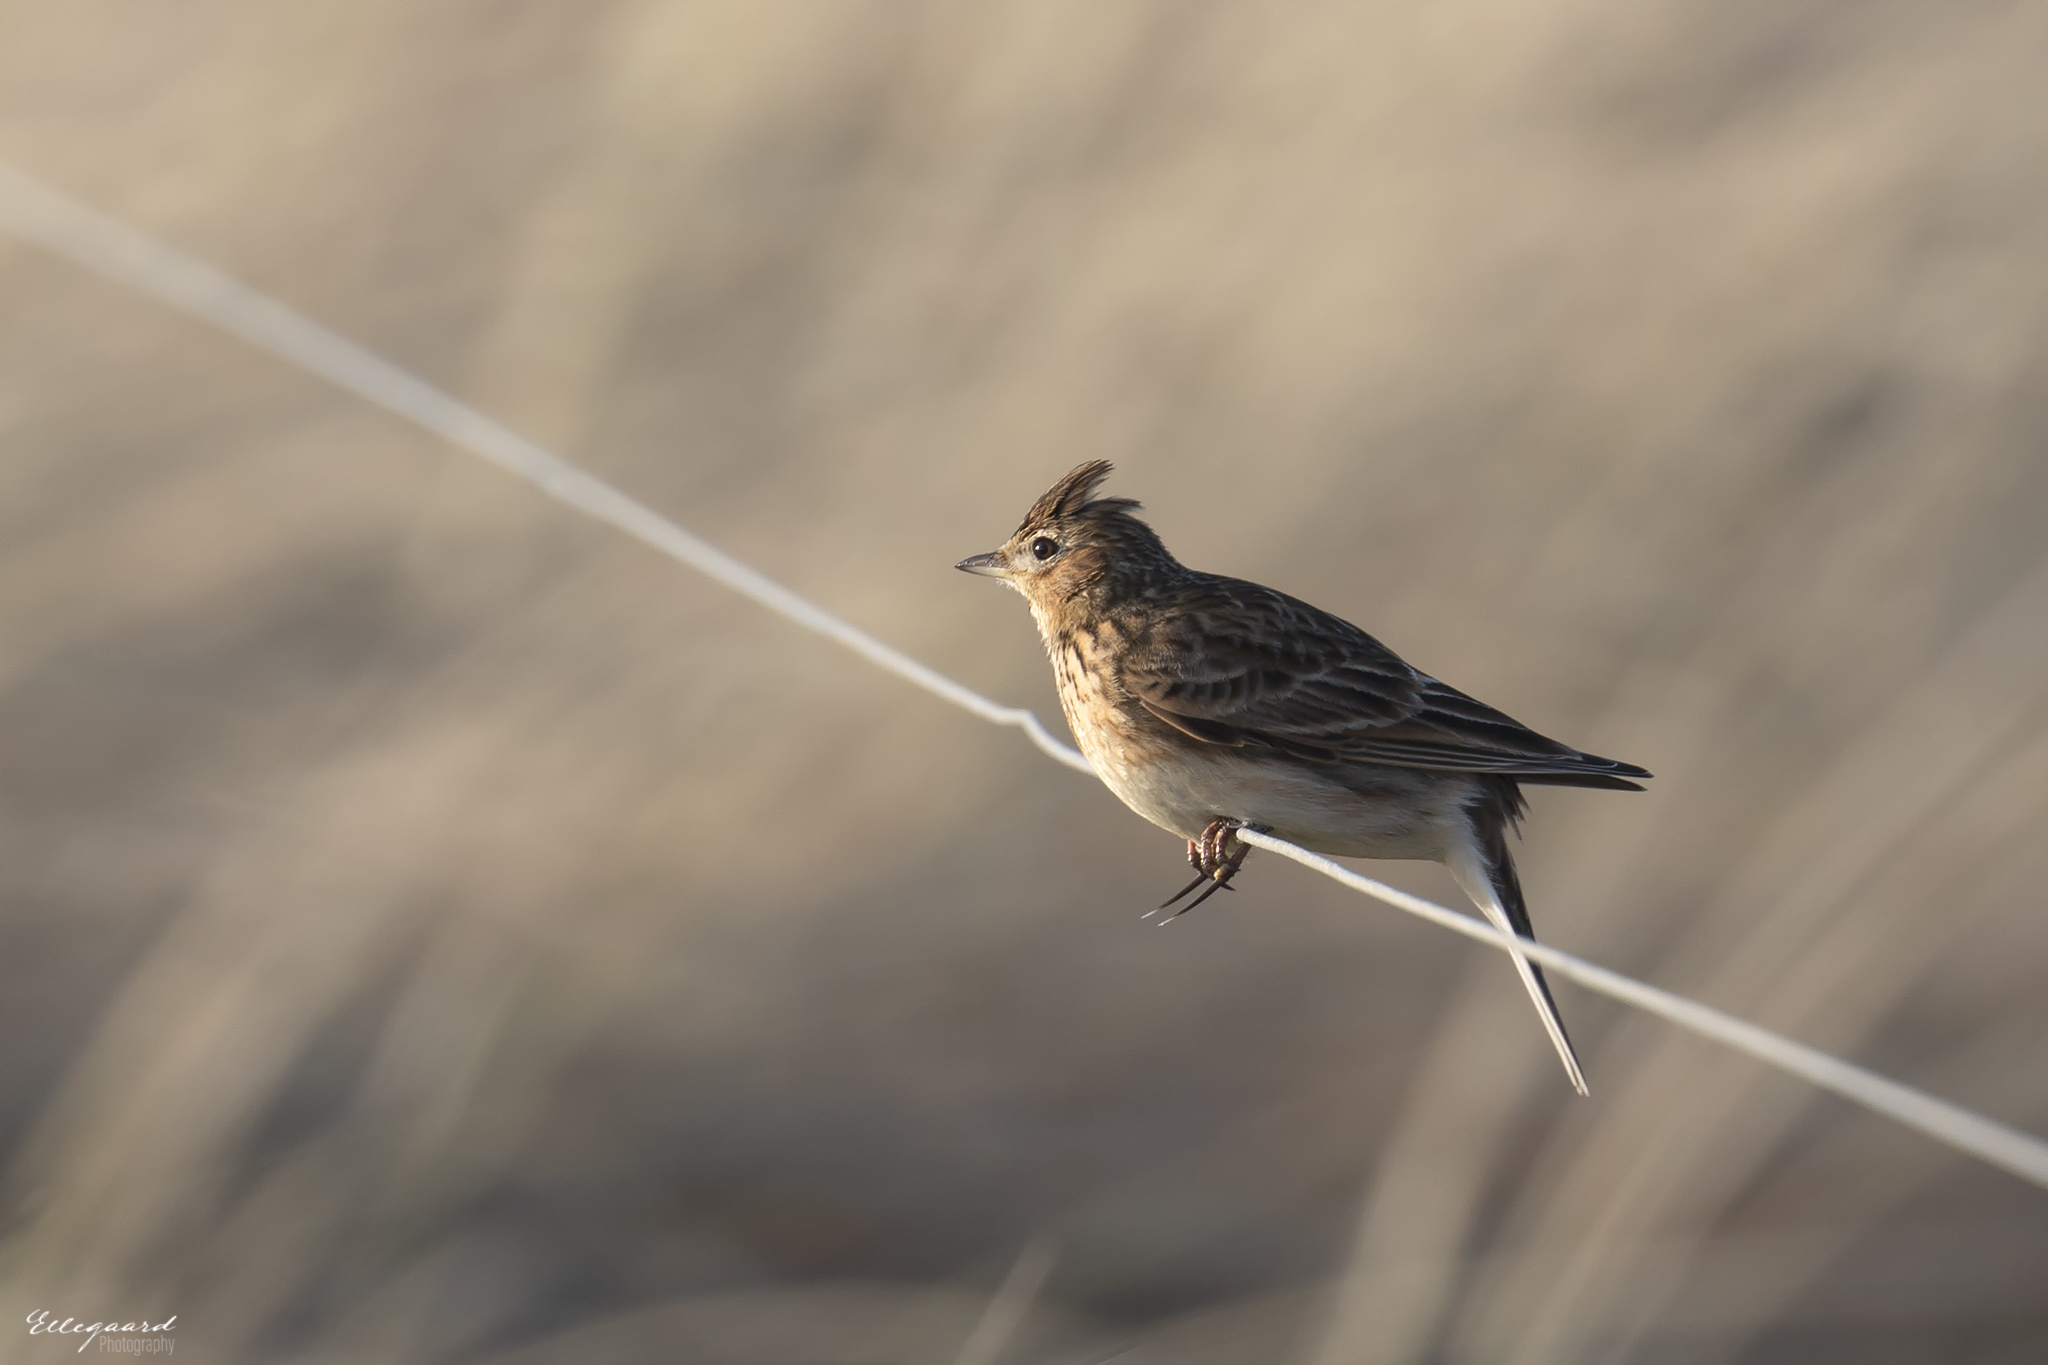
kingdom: Animalia
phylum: Chordata
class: Aves
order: Passeriformes
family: Alaudidae
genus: Alauda
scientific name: Alauda arvensis
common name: Eurasian skylark
